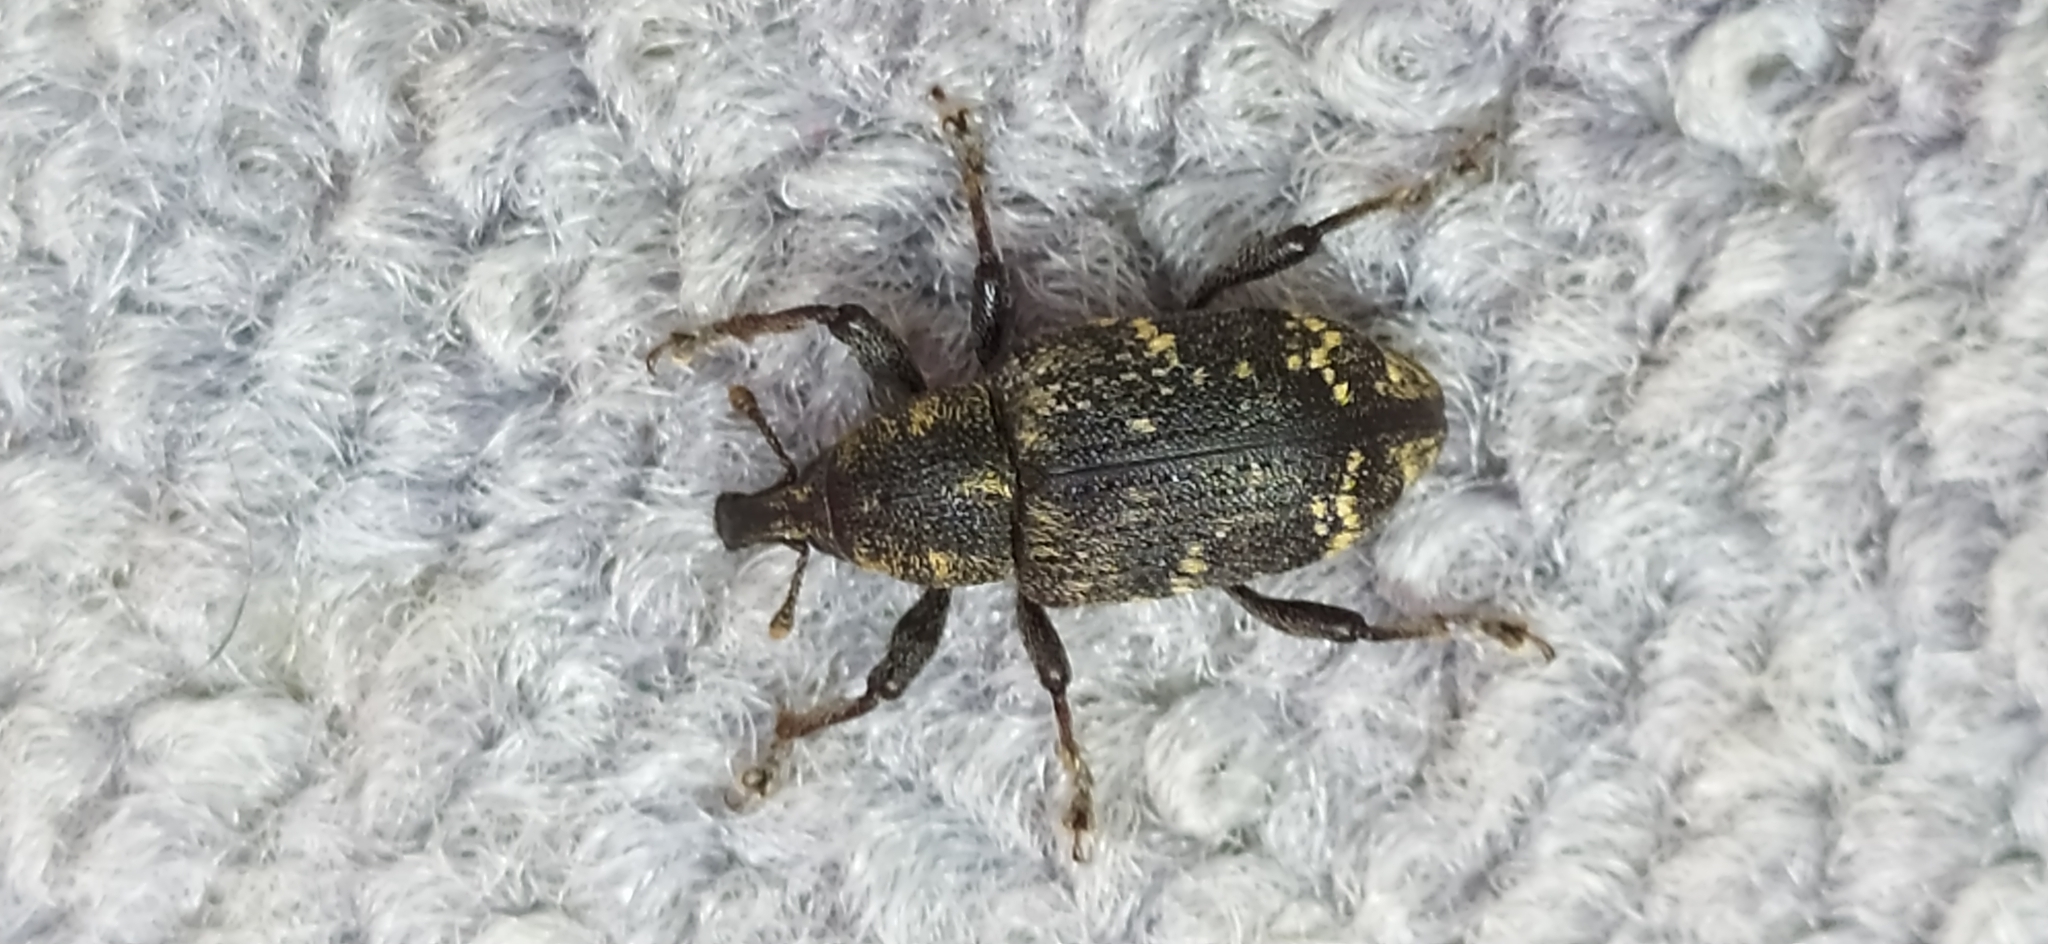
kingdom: Animalia
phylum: Arthropoda
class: Insecta
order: Coleoptera
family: Curculionidae
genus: Hylobius
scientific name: Hylobius abietis
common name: Large pine weevil
